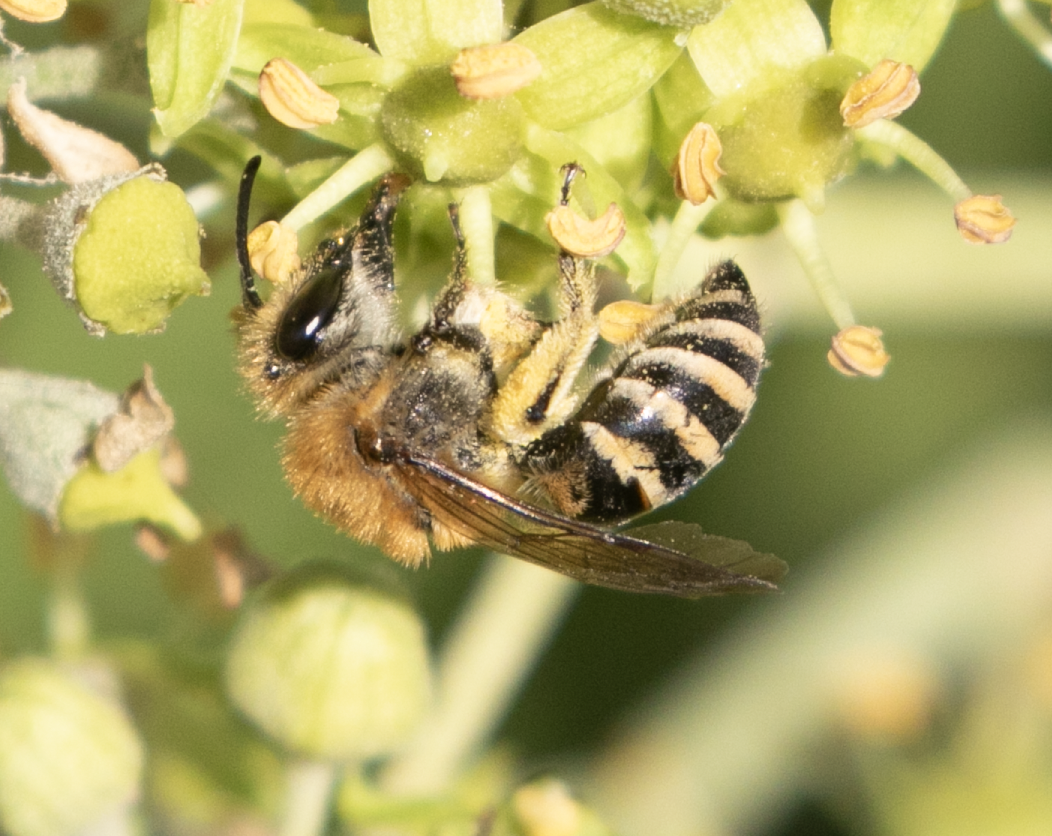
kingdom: Animalia
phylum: Arthropoda
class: Insecta
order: Hymenoptera
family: Colletidae
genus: Colletes
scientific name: Colletes hederae
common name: Ivy bee
